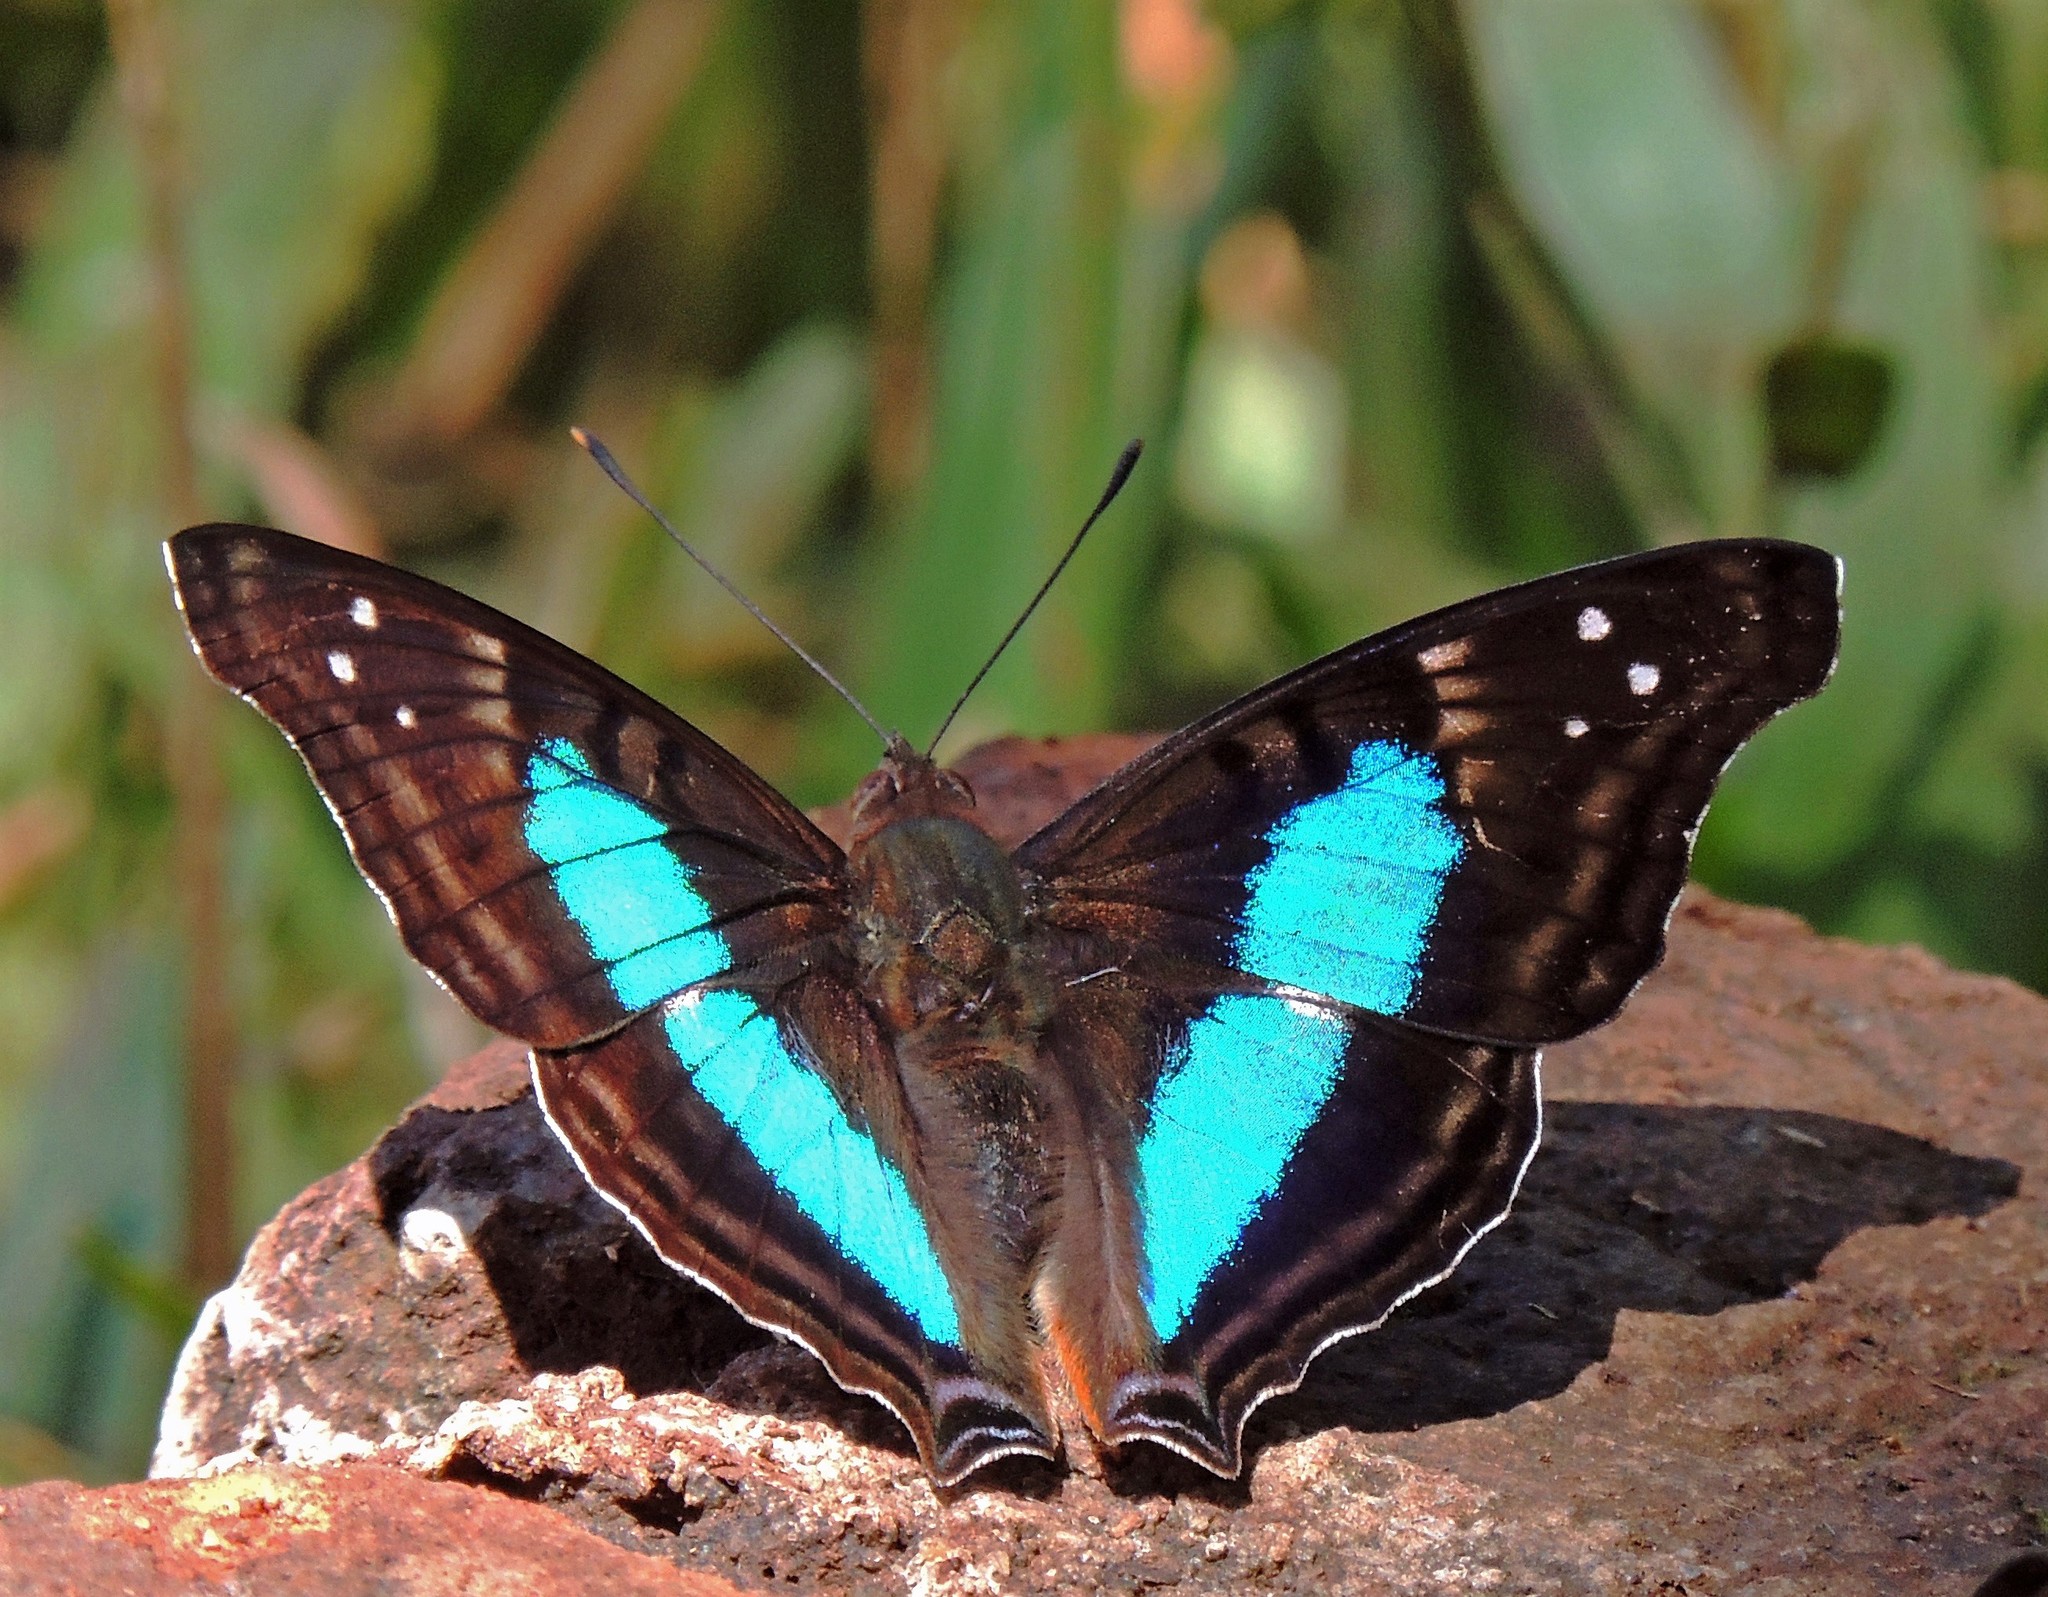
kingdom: Animalia
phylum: Arthropoda
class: Insecta
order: Lepidoptera
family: Nymphalidae
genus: Doxocopa
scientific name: Doxocopa laurentia
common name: Turquoise emperor
